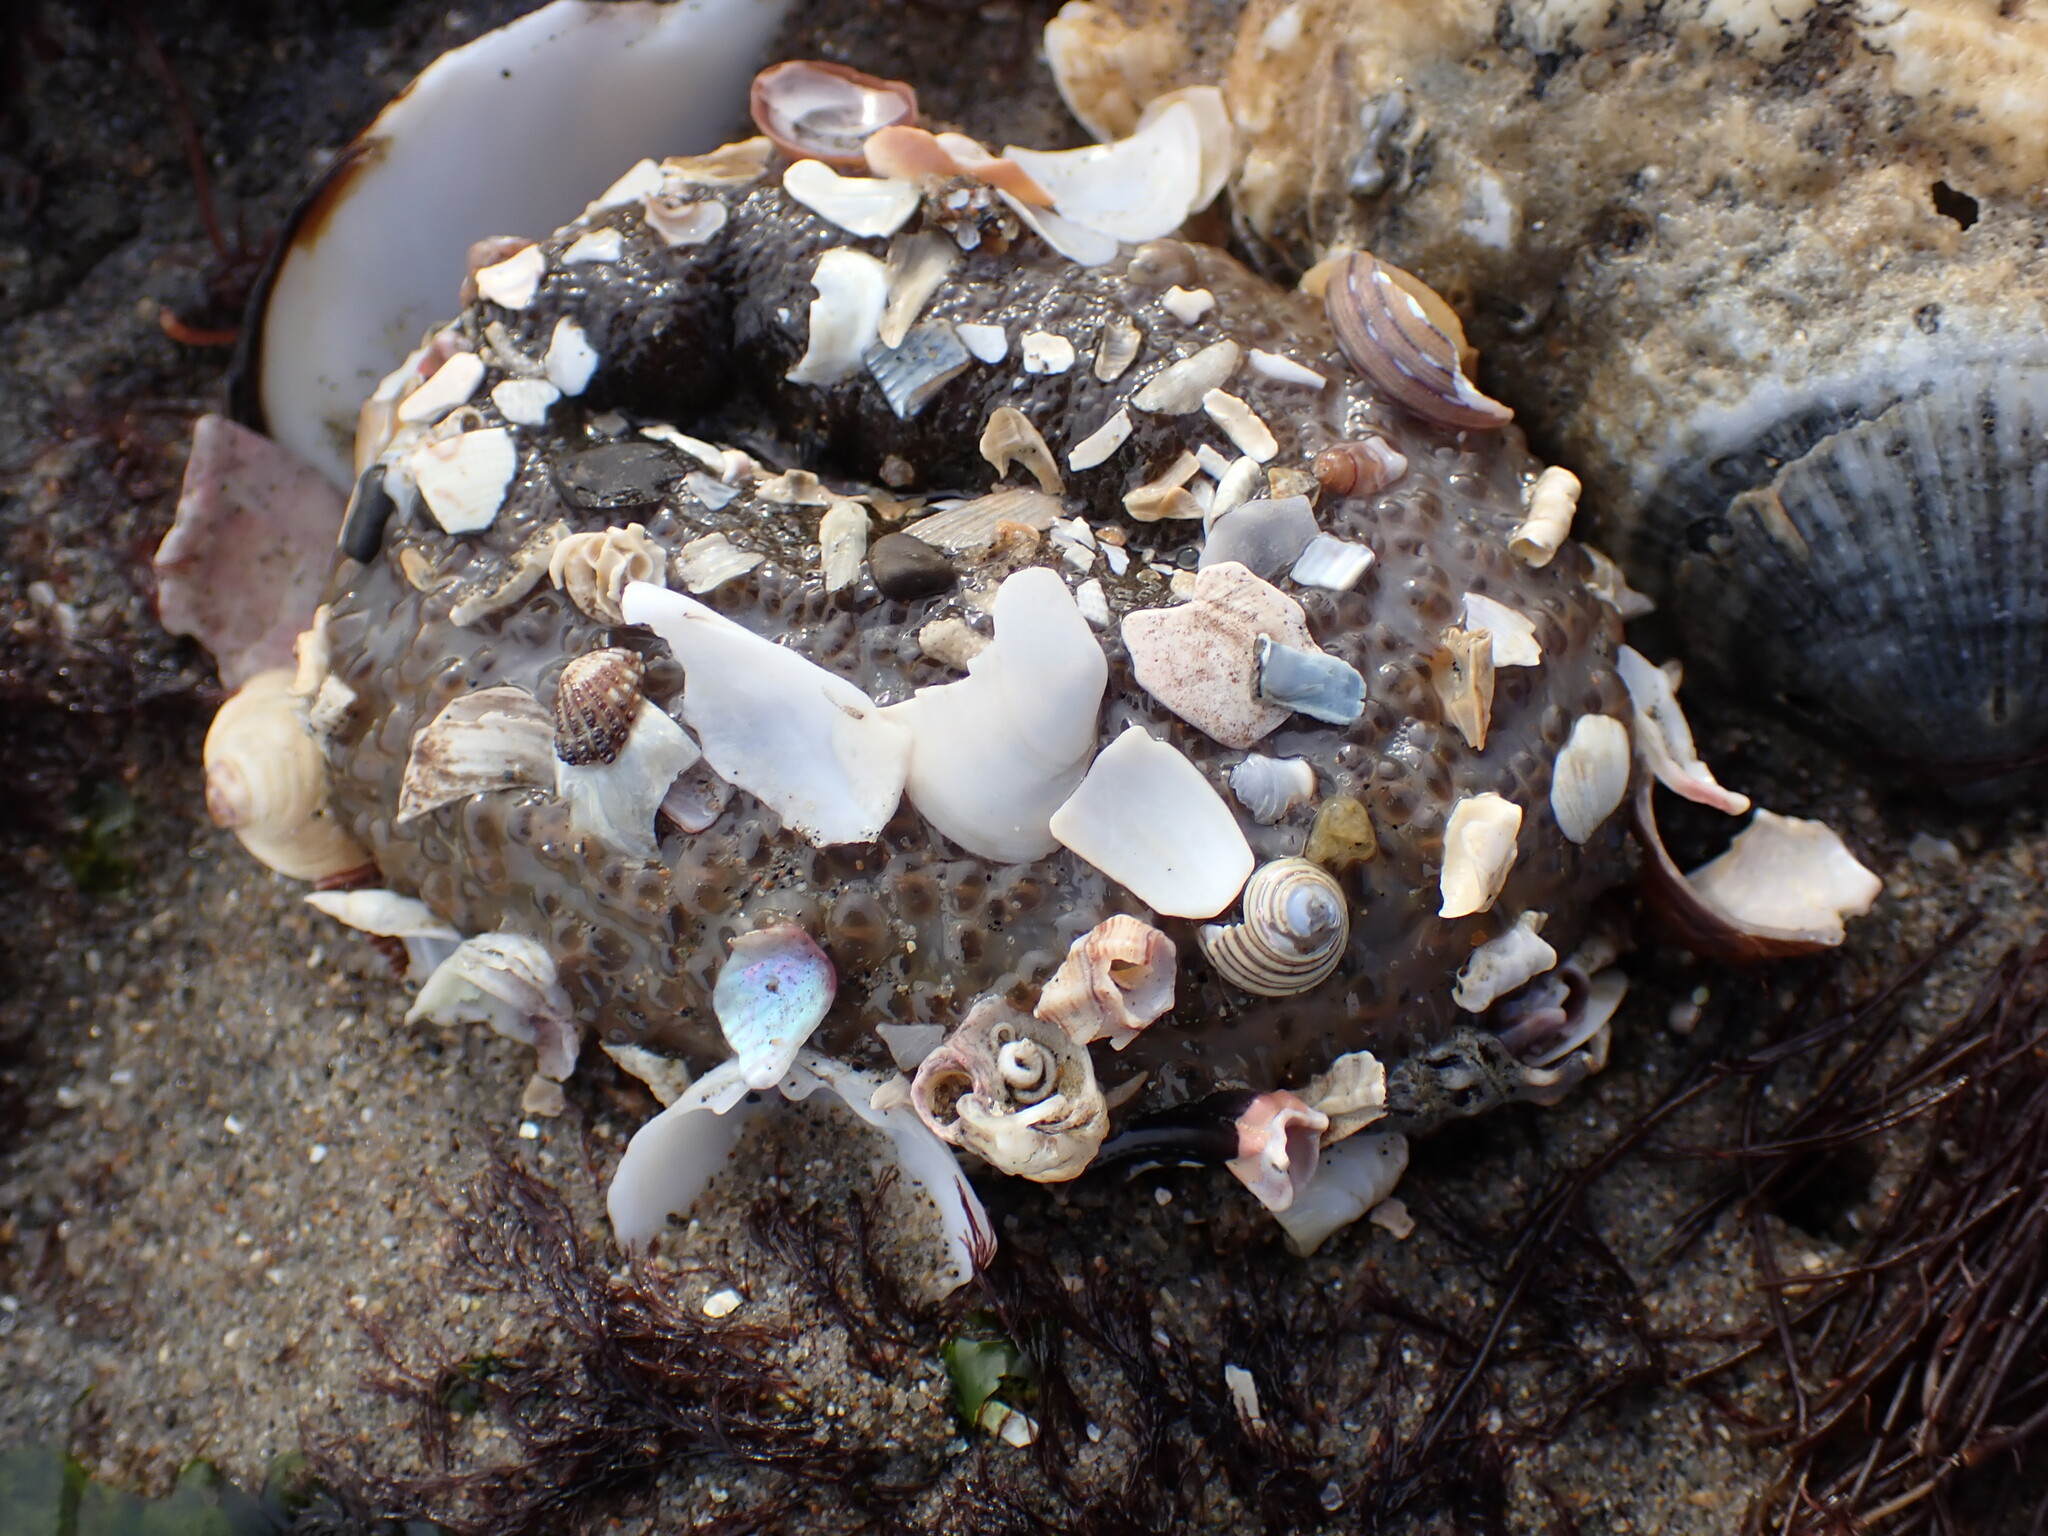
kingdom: Animalia
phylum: Mollusca
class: Gastropoda
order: Trochida
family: Calliostomatidae
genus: Calliostoma
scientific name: Calliostoma tricolor
